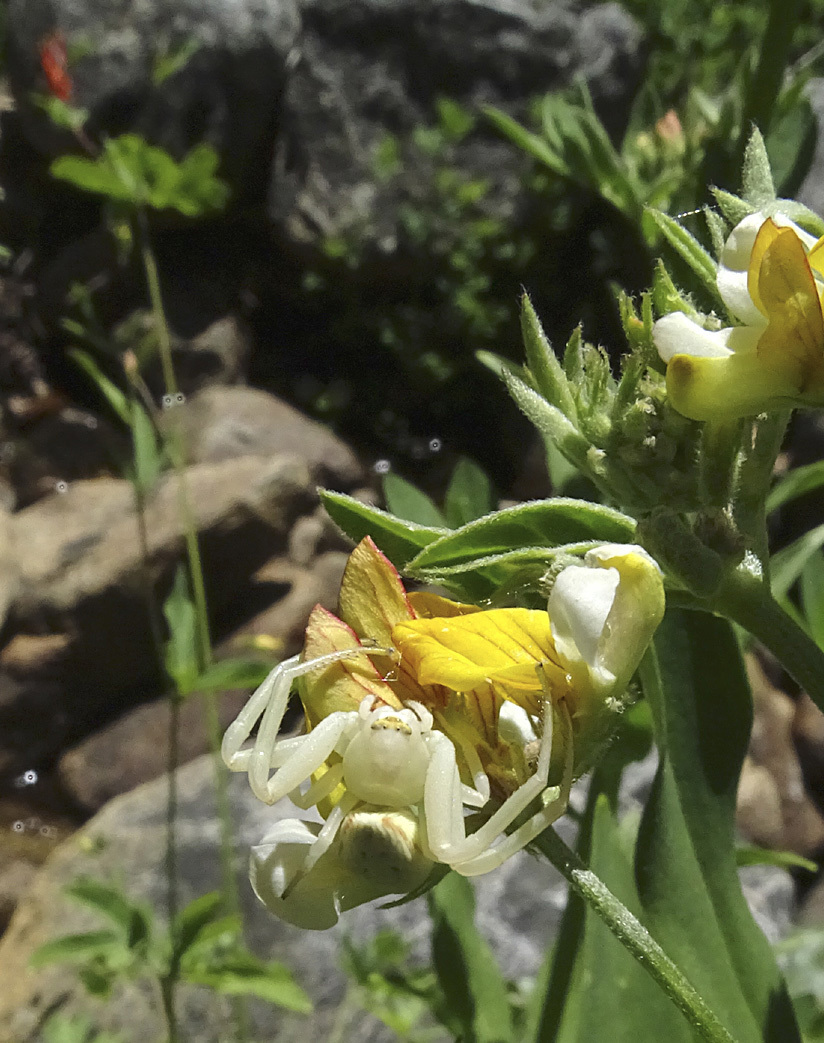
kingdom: Animalia
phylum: Arthropoda
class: Arachnida
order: Araneae
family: Thomisidae
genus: Misumena
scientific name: Misumena vatia
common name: Goldenrod crab spider
